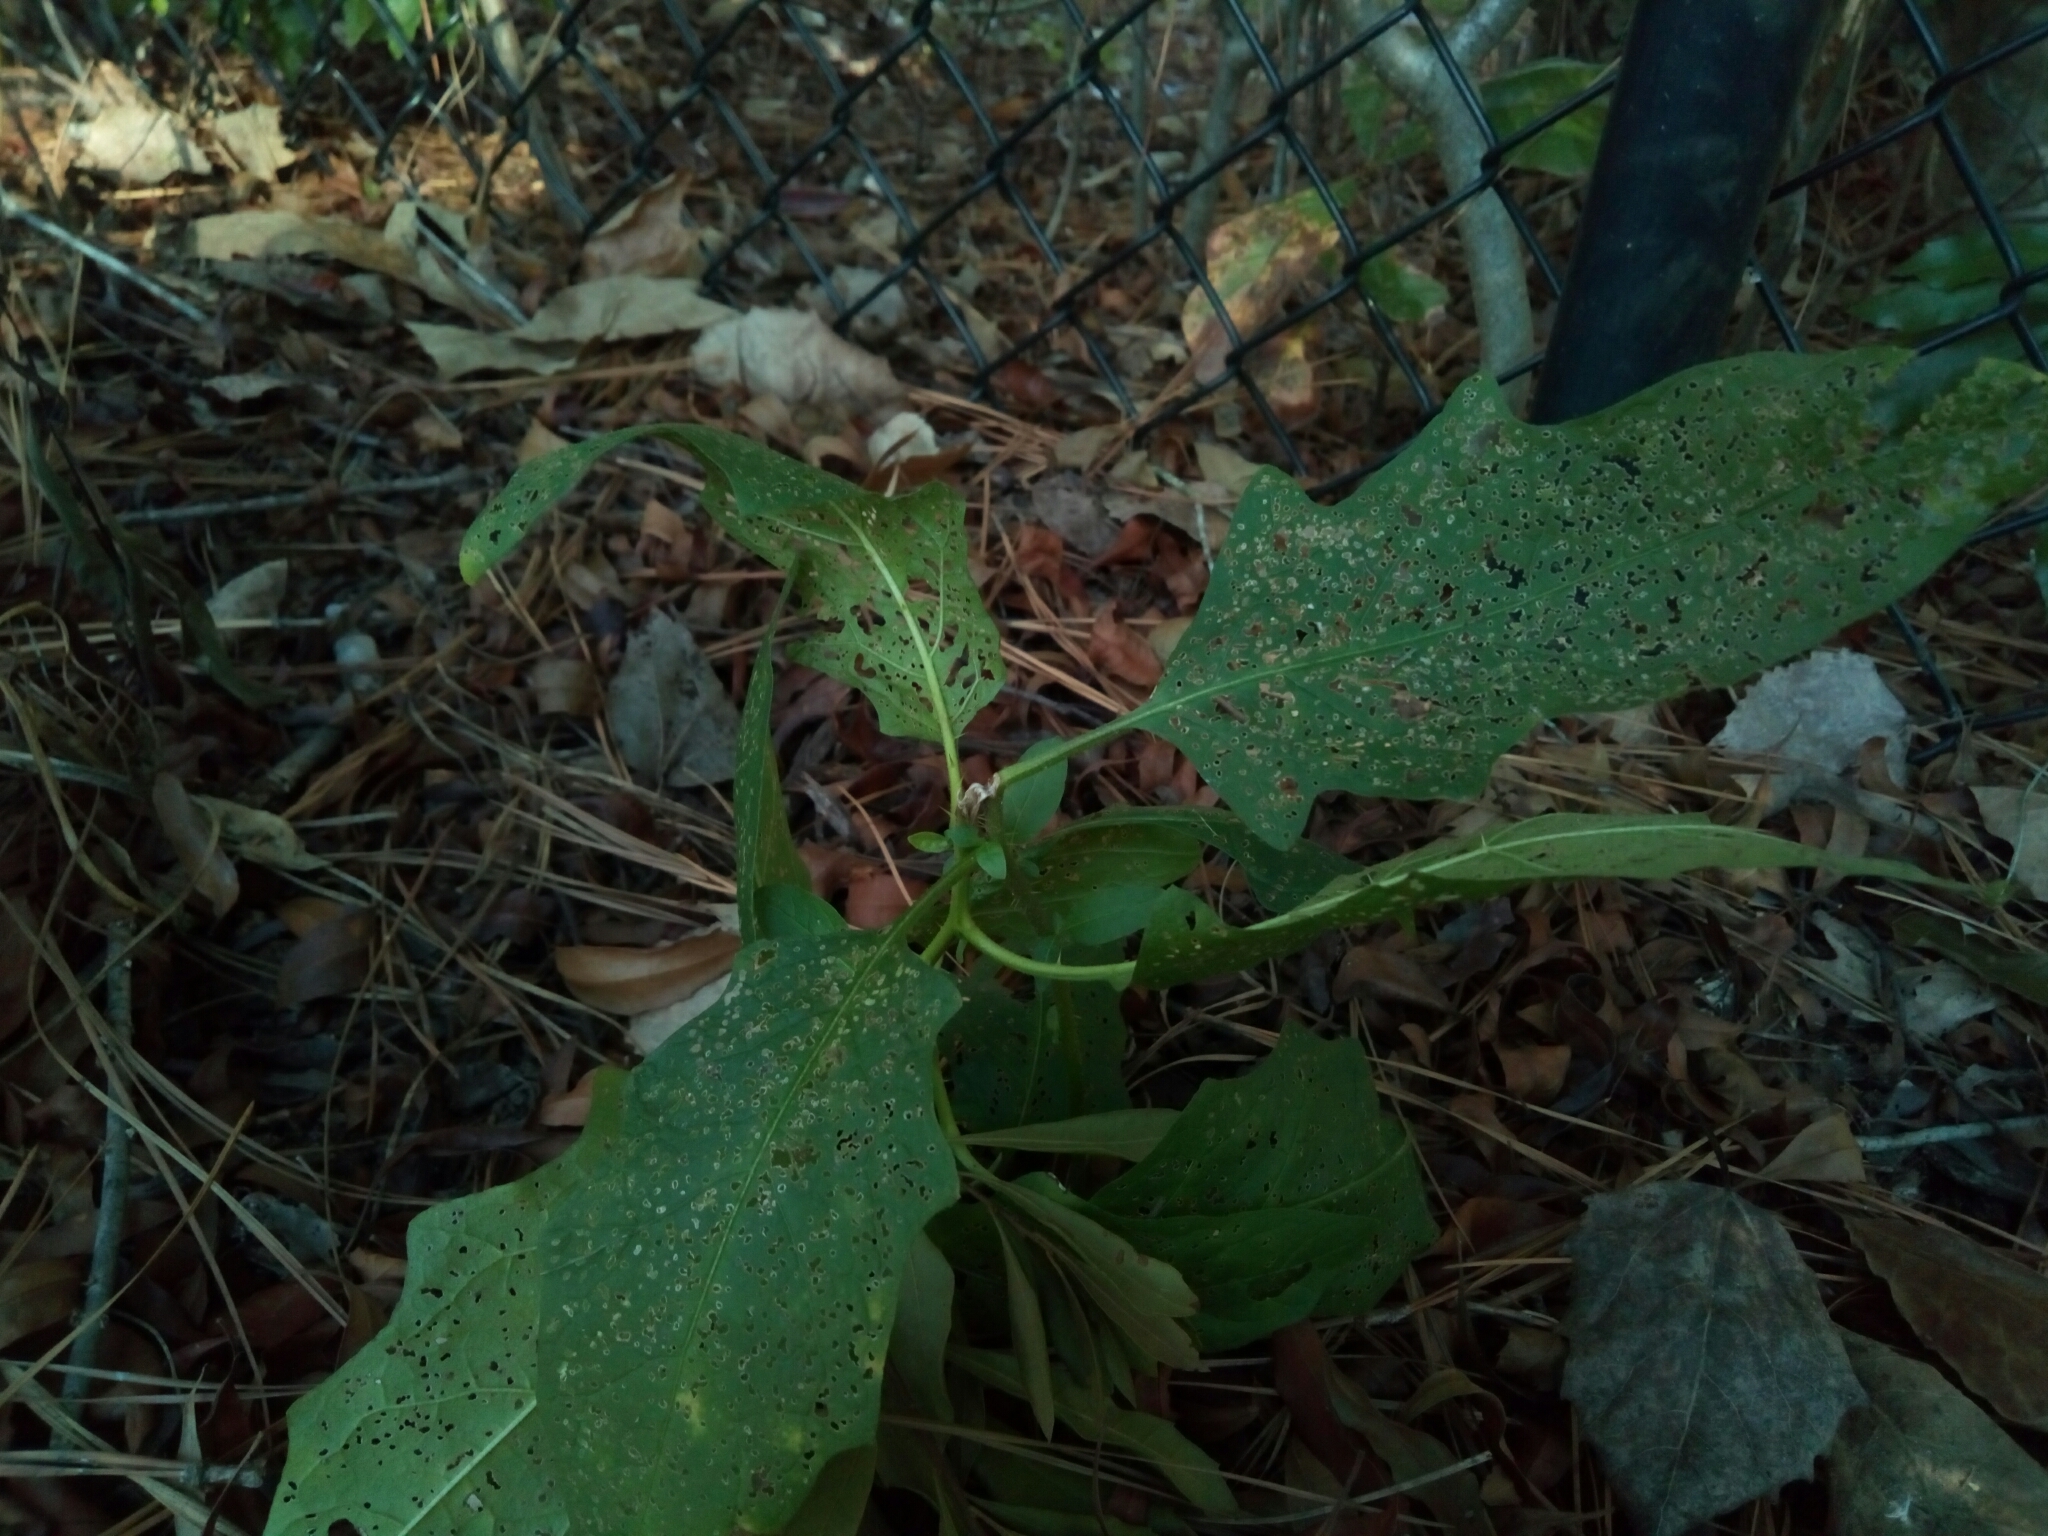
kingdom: Plantae
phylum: Tracheophyta
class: Magnoliopsida
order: Solanales
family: Solanaceae
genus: Solanum
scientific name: Solanum carolinense
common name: Horse-nettle
